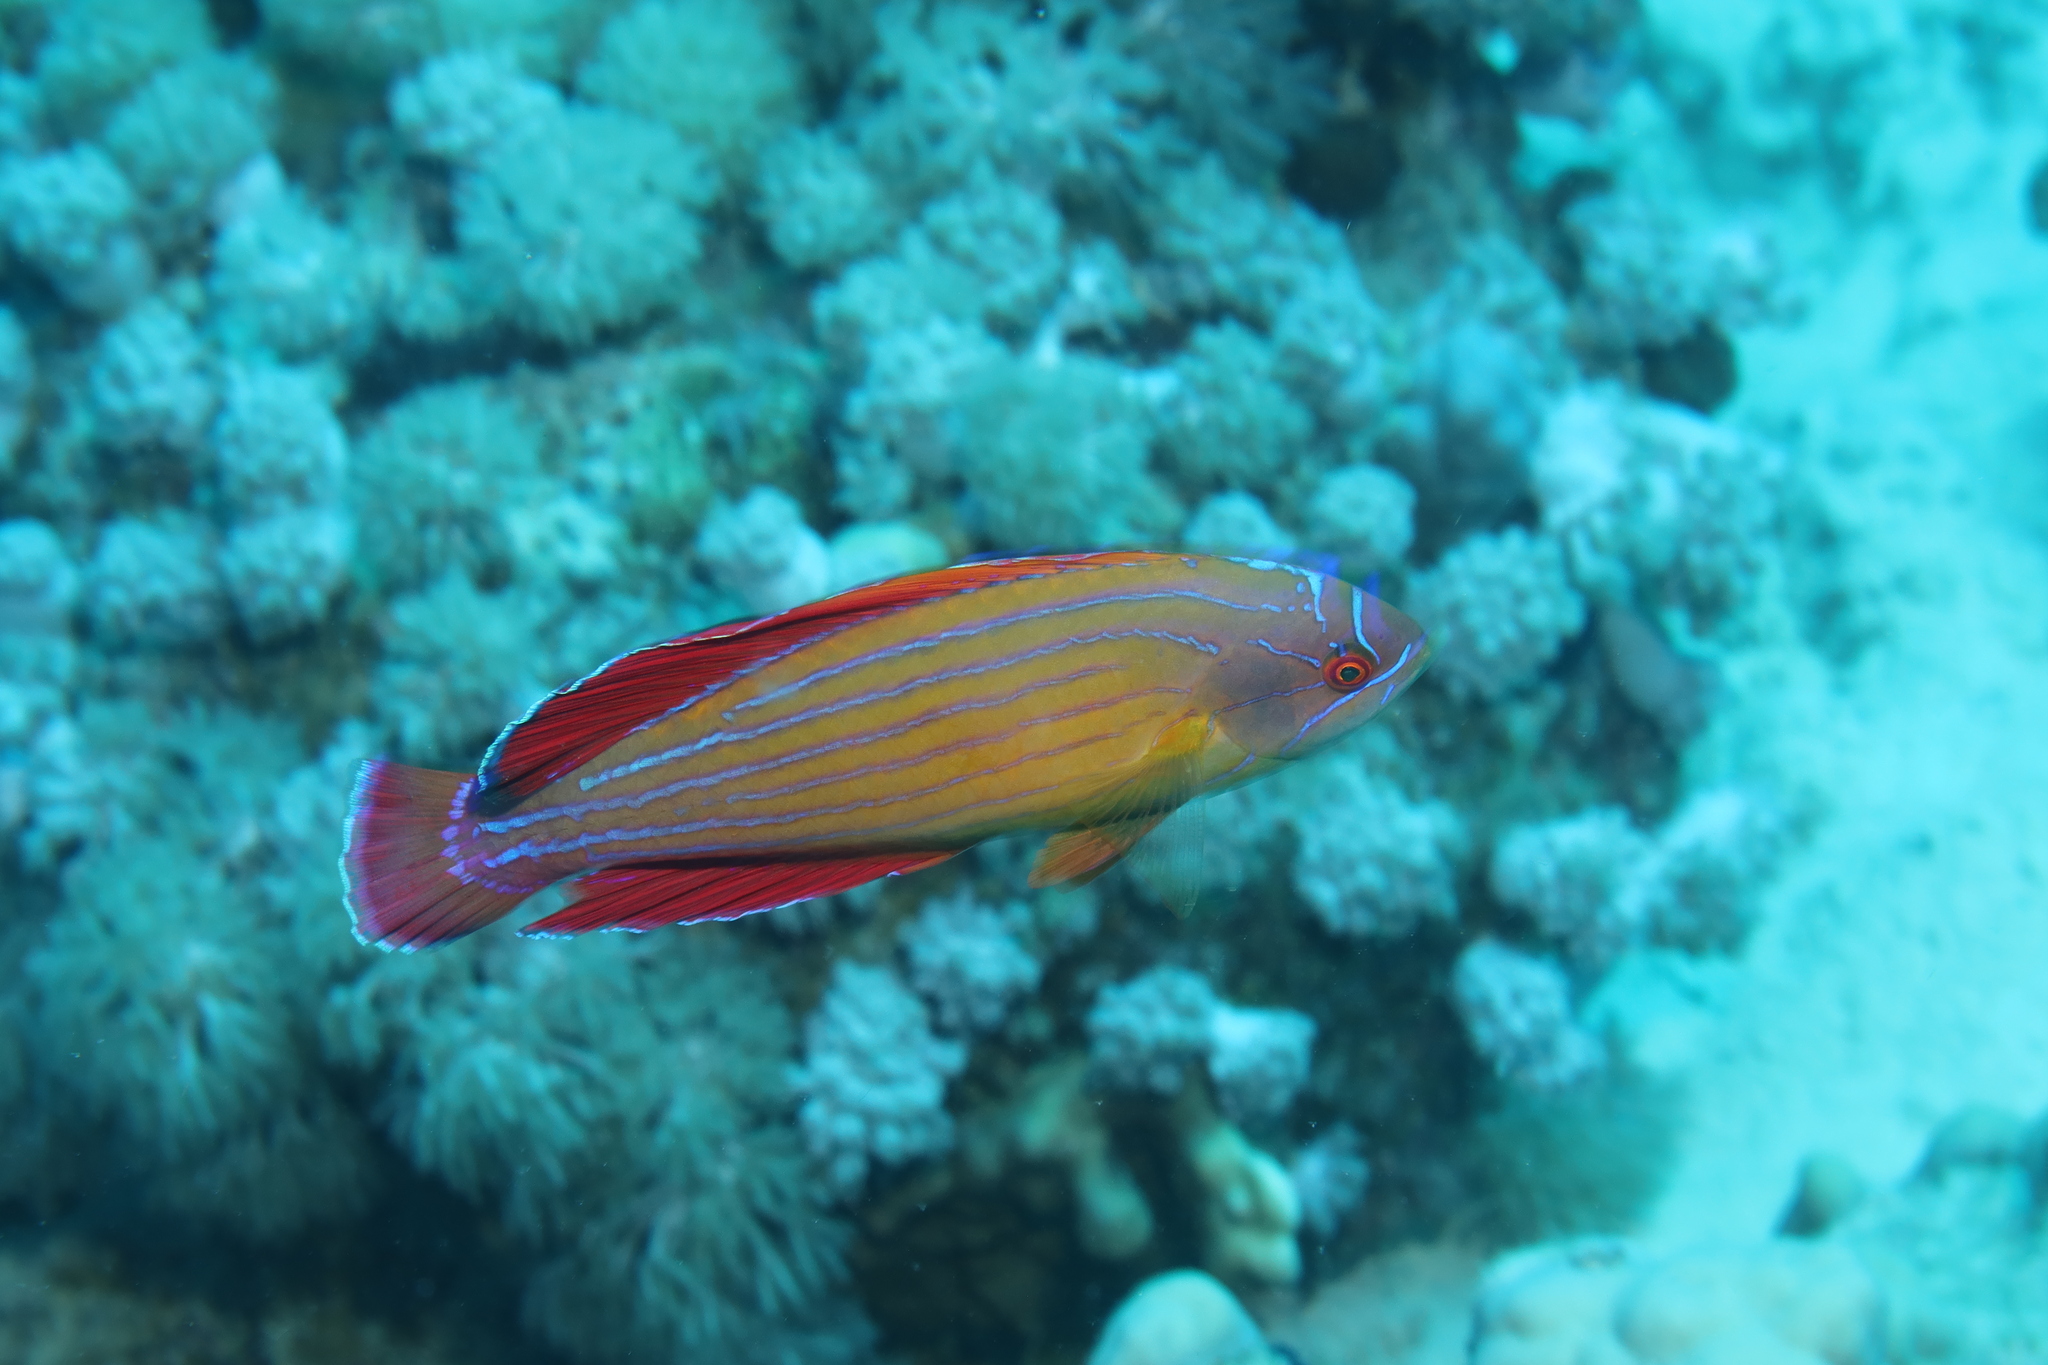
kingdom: Animalia
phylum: Chordata
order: Perciformes
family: Labridae
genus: Paracheilinus
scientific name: Paracheilinus octotaenia
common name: Red sea eightline flasher
